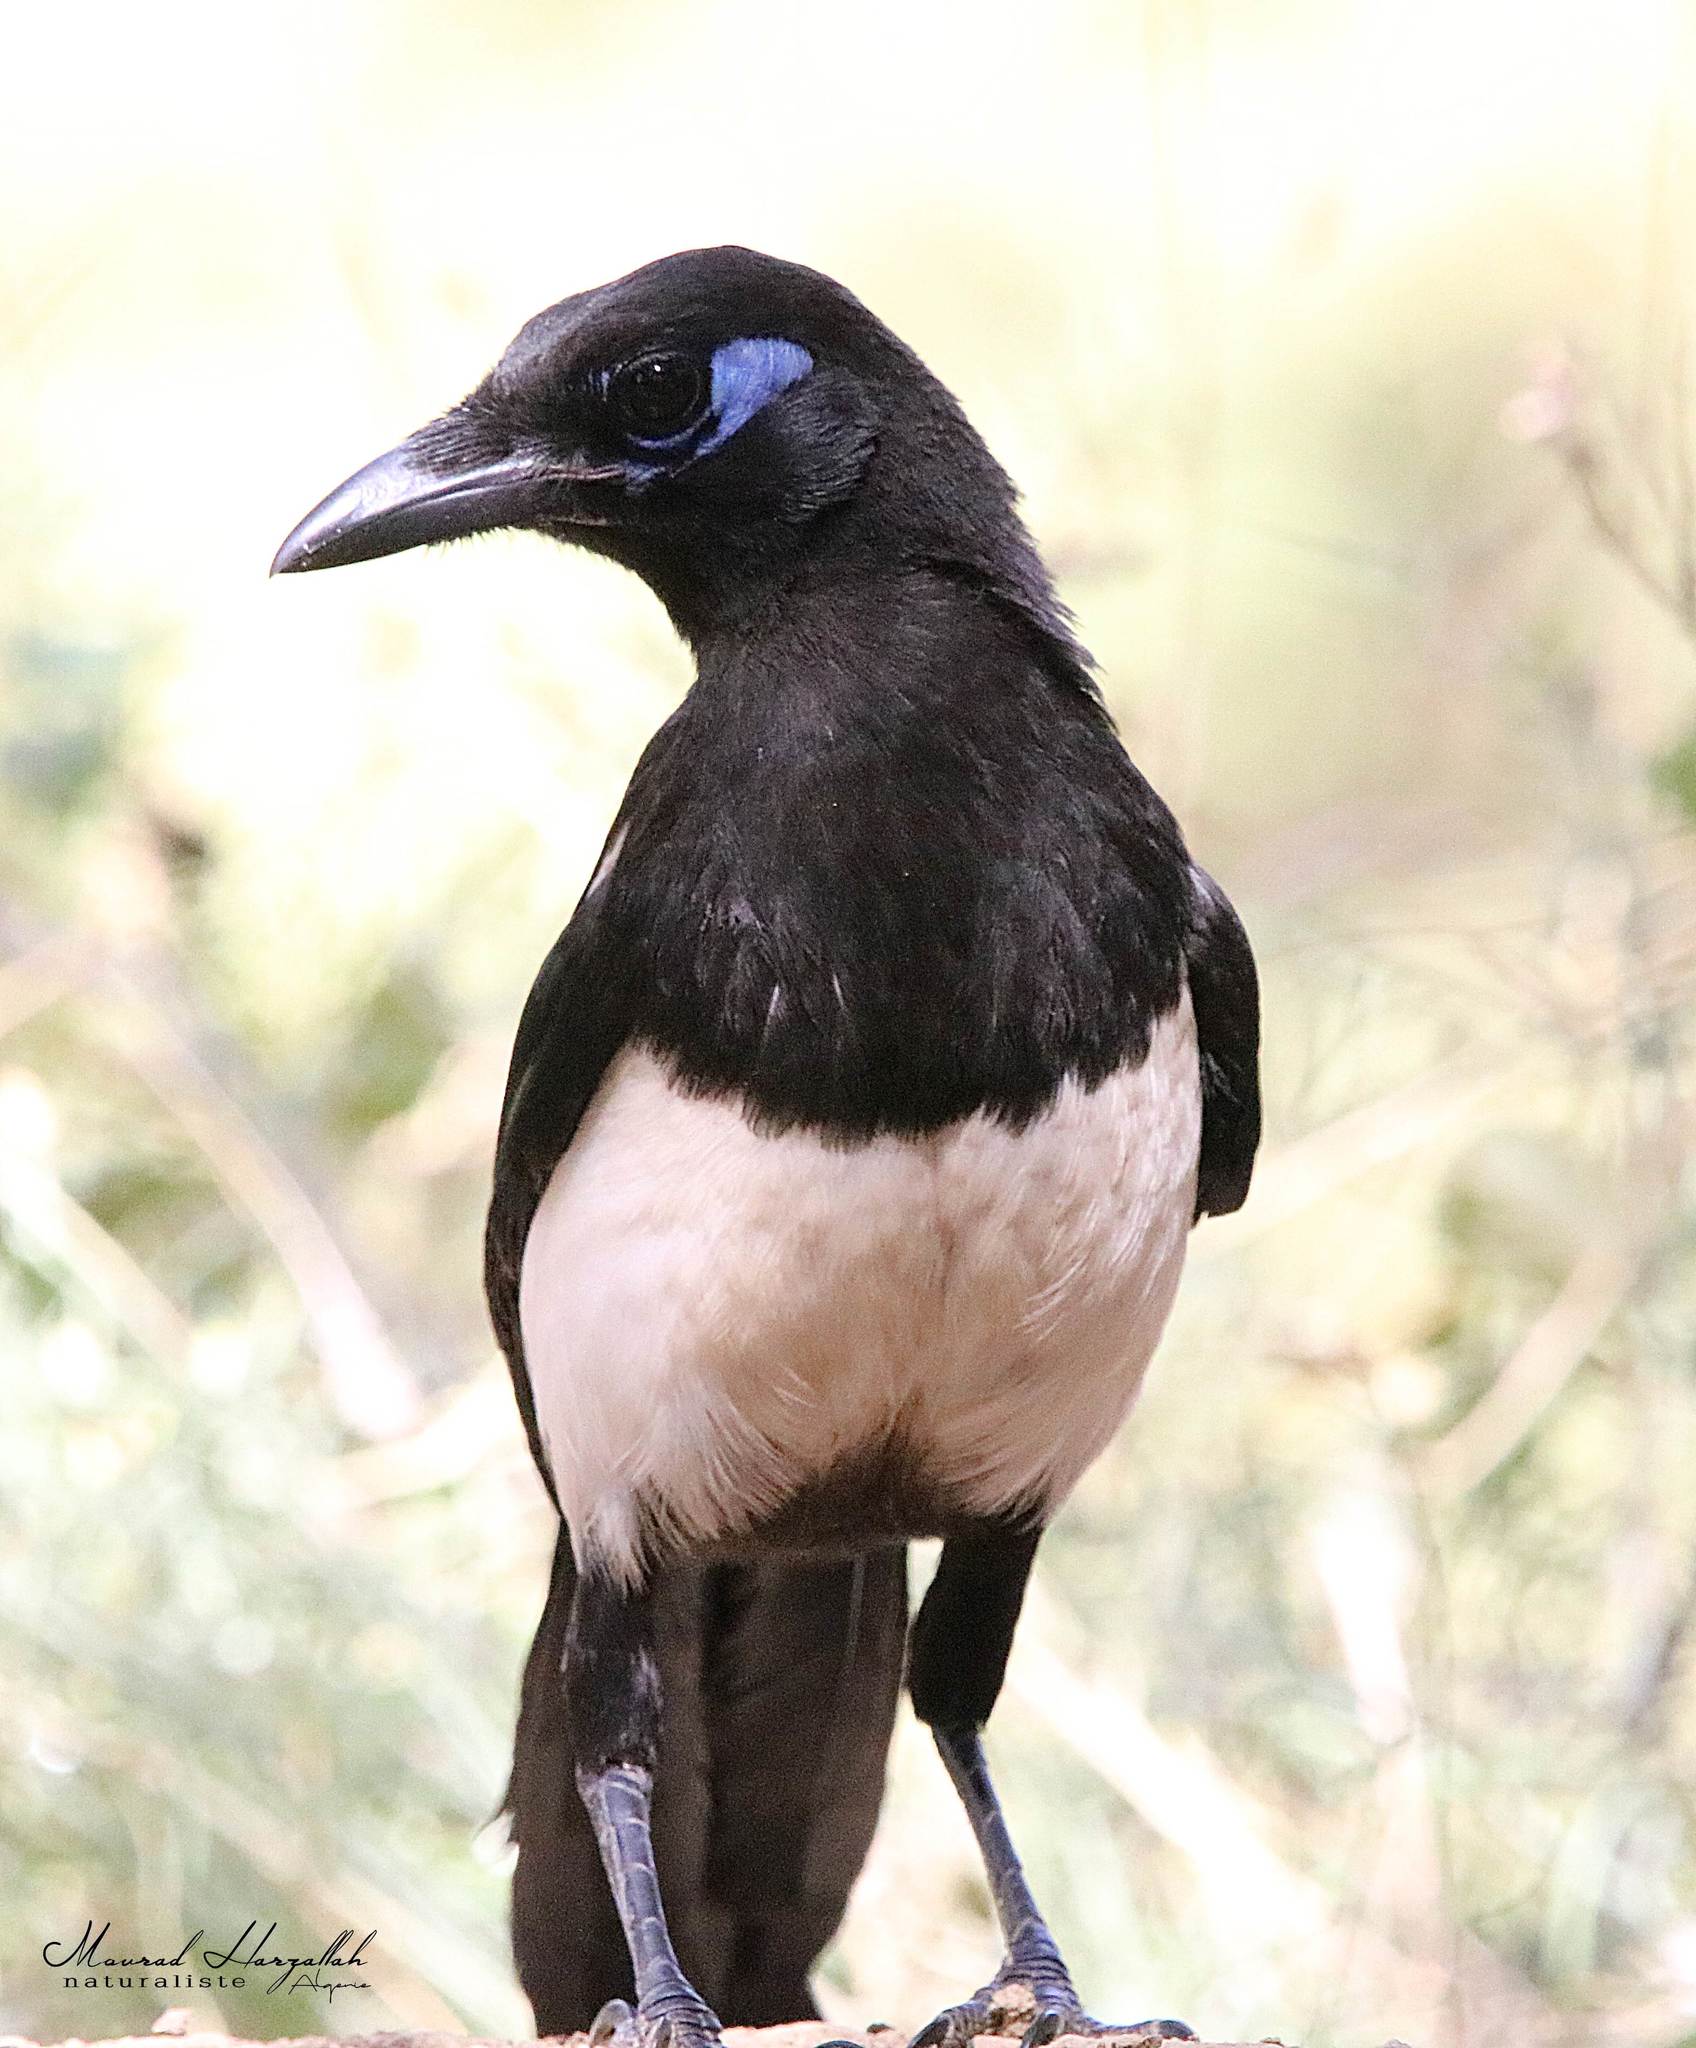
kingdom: Animalia
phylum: Chordata
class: Aves
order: Passeriformes
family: Corvidae
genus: Pica
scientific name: Pica mauritanica
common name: Maghreb magpie
